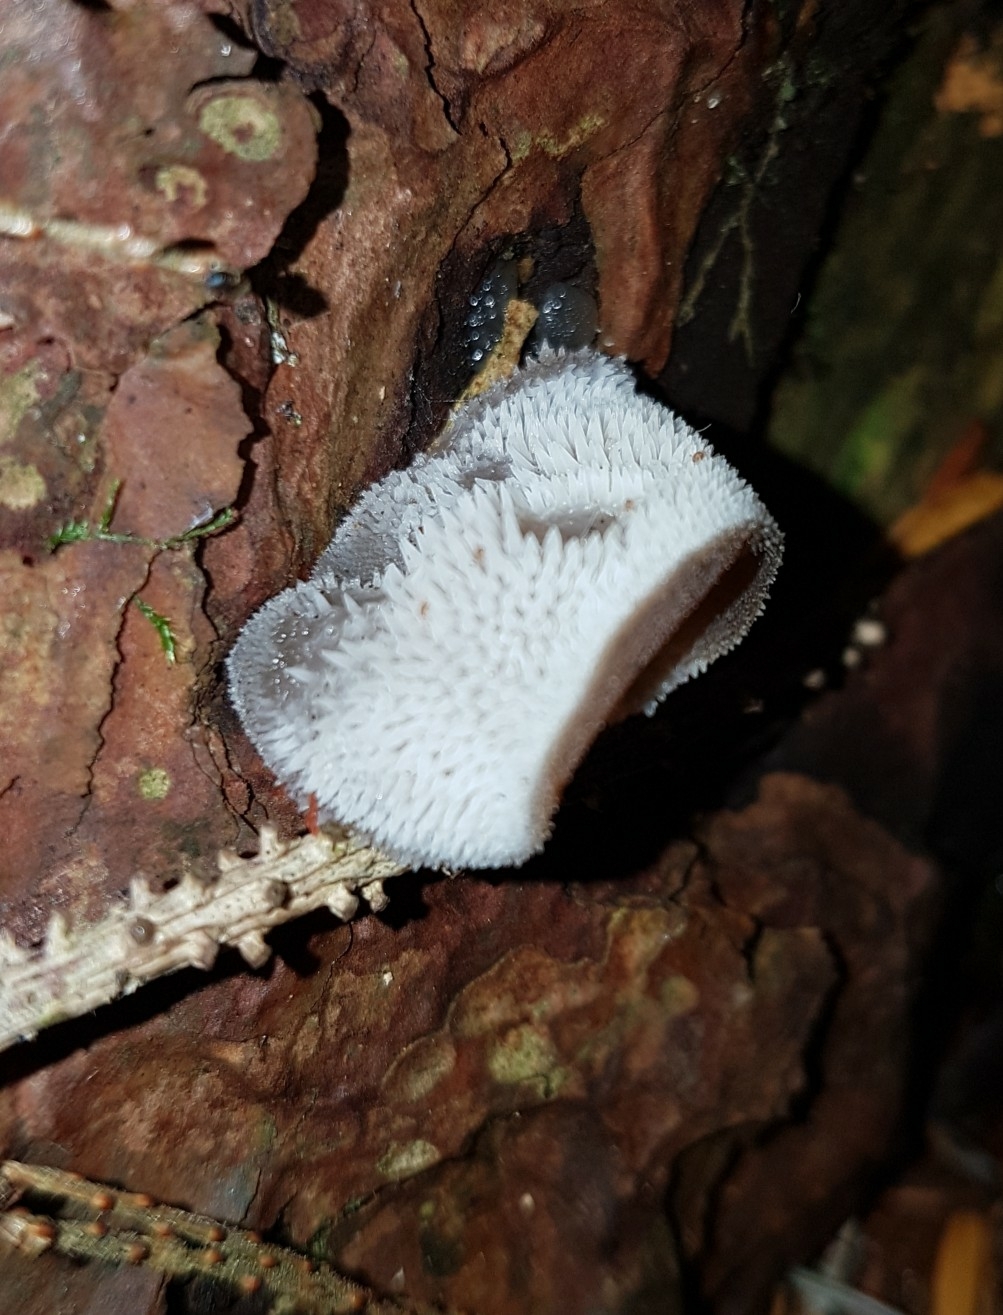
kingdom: Fungi
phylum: Basidiomycota
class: Agaricomycetes
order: Auriculariales
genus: Pseudohydnum
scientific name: Pseudohydnum gelatinosum
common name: Jelly tongue
